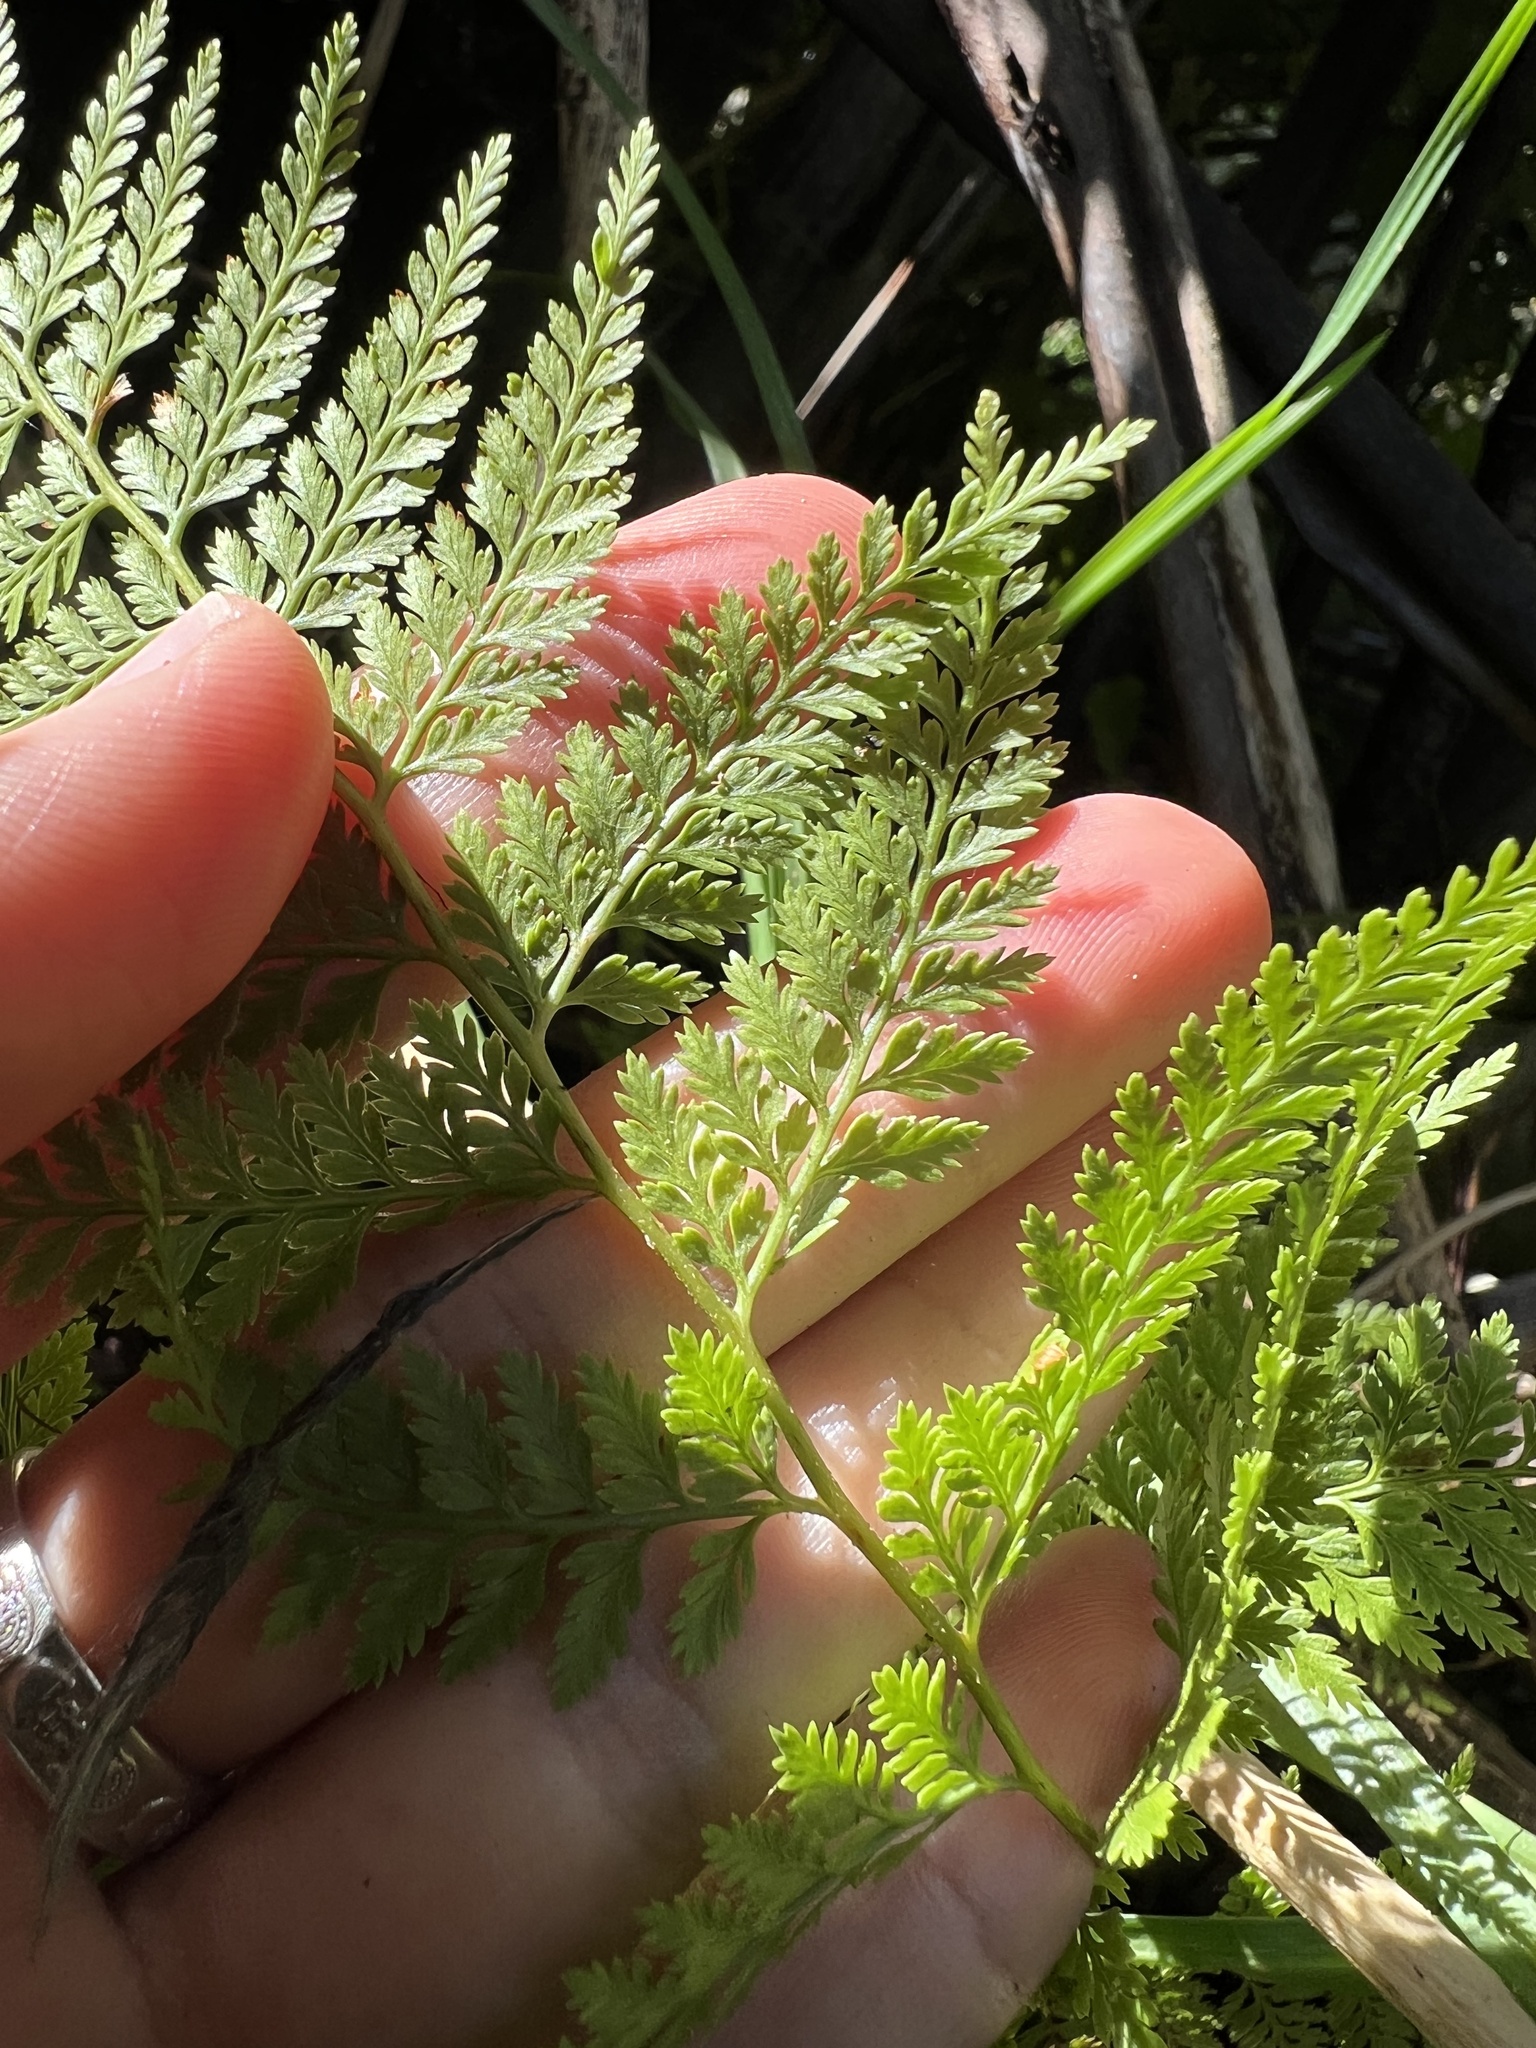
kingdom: Plantae
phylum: Tracheophyta
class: Polypodiopsida
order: Polypodiales
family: Dennstaedtiaceae
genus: Paesia
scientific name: Paesia scaberula
